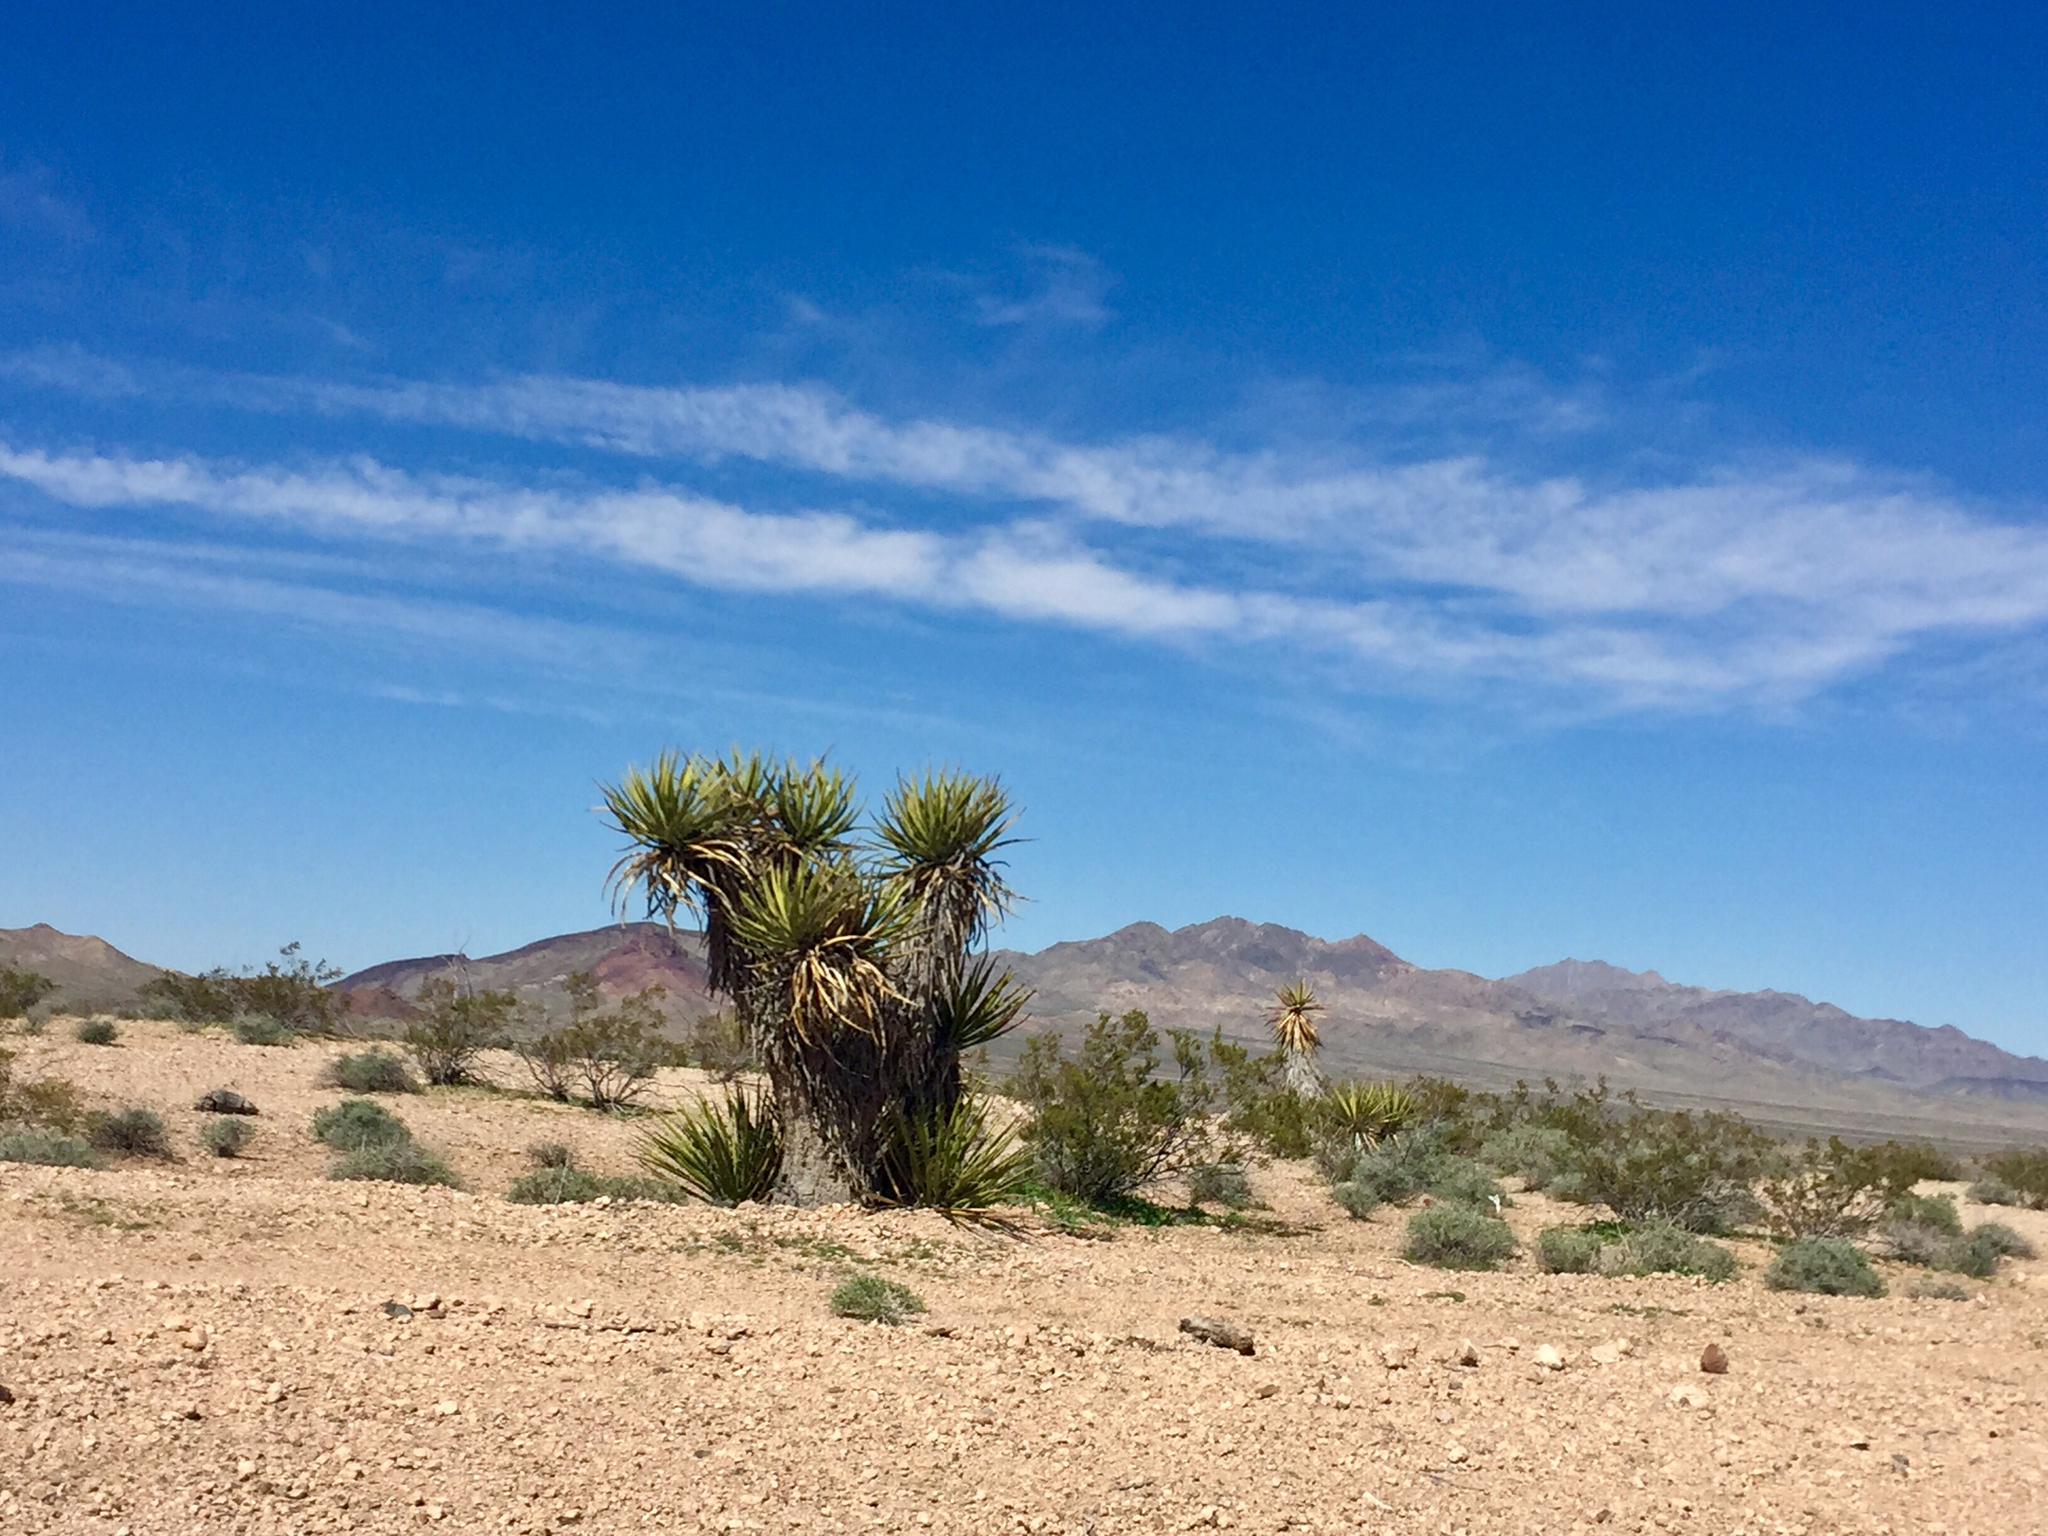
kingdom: Plantae
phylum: Tracheophyta
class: Liliopsida
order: Asparagales
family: Asparagaceae
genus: Yucca
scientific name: Yucca schidigera
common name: Mojave yucca
